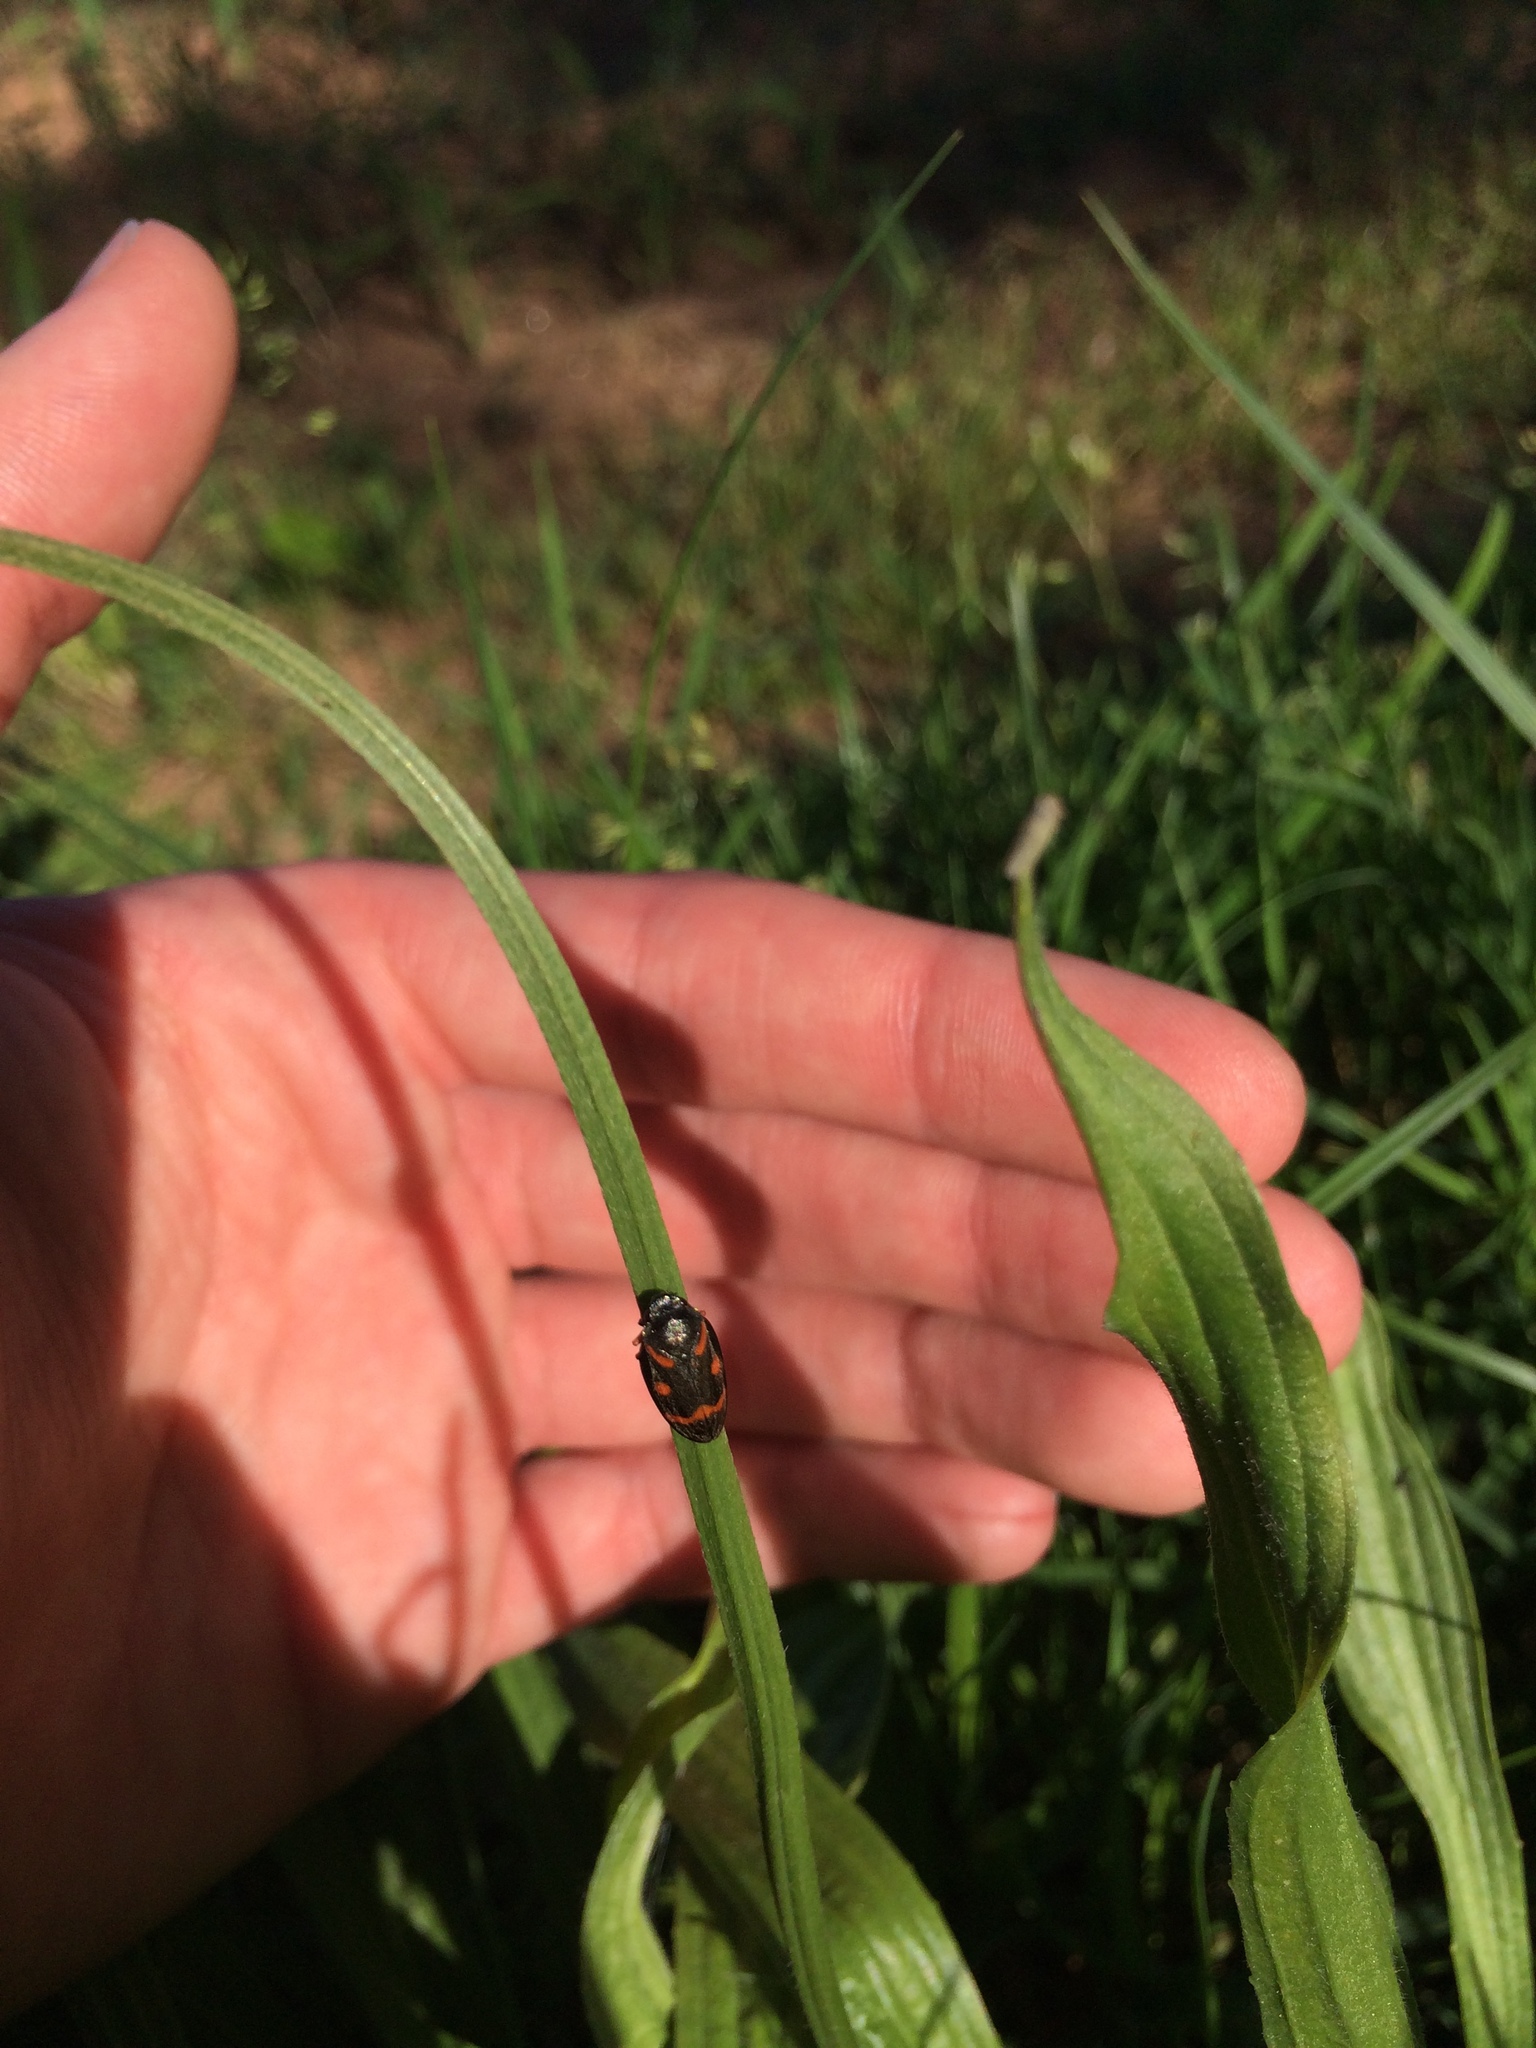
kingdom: Animalia
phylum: Arthropoda
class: Insecta
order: Hemiptera
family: Cercopidae
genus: Cercopis
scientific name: Cercopis intermedia
